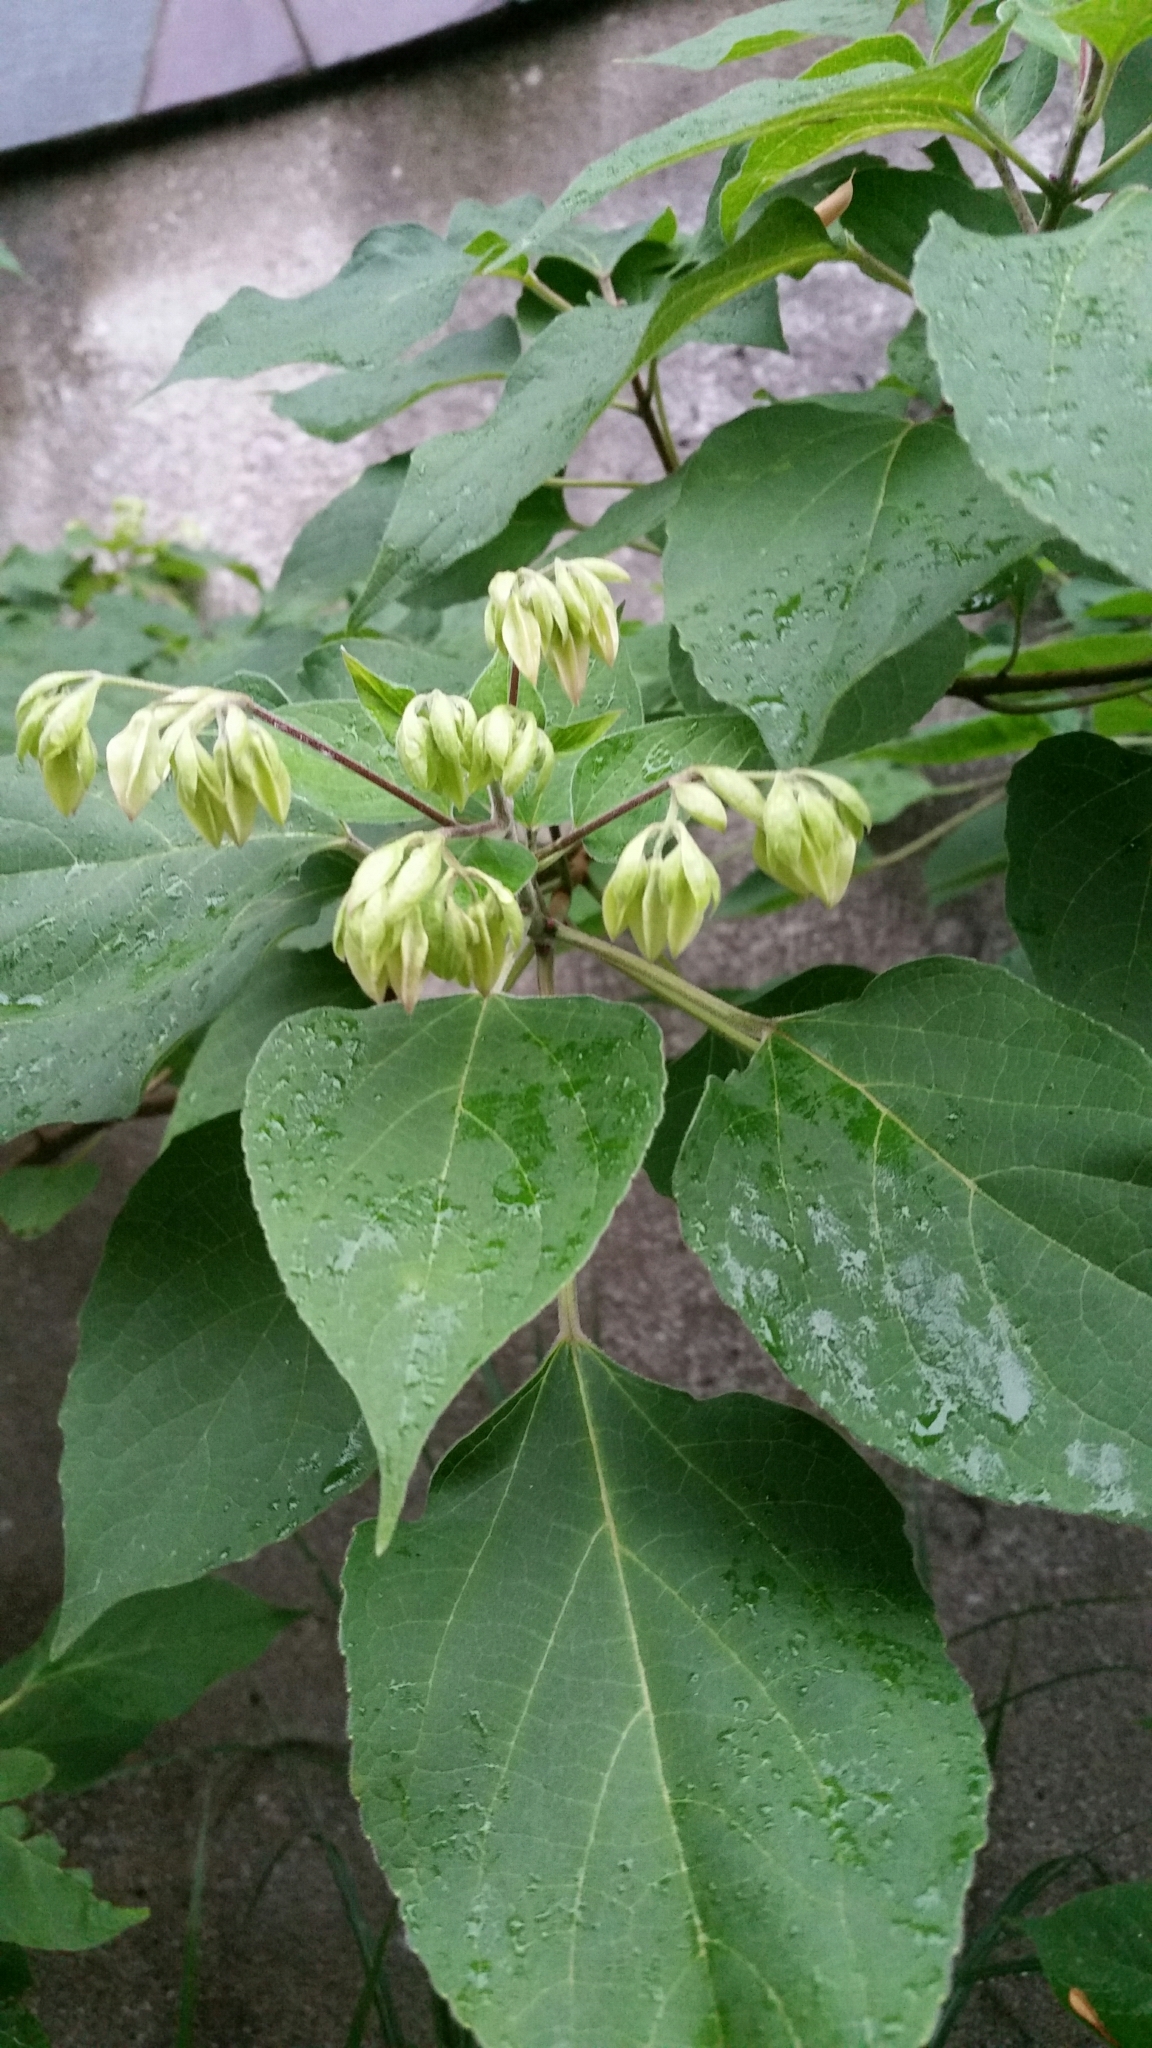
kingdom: Plantae
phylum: Tracheophyta
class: Magnoliopsida
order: Lamiales
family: Lamiaceae
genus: Clerodendrum
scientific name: Clerodendrum trichotomum
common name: Harlequin glorybower
